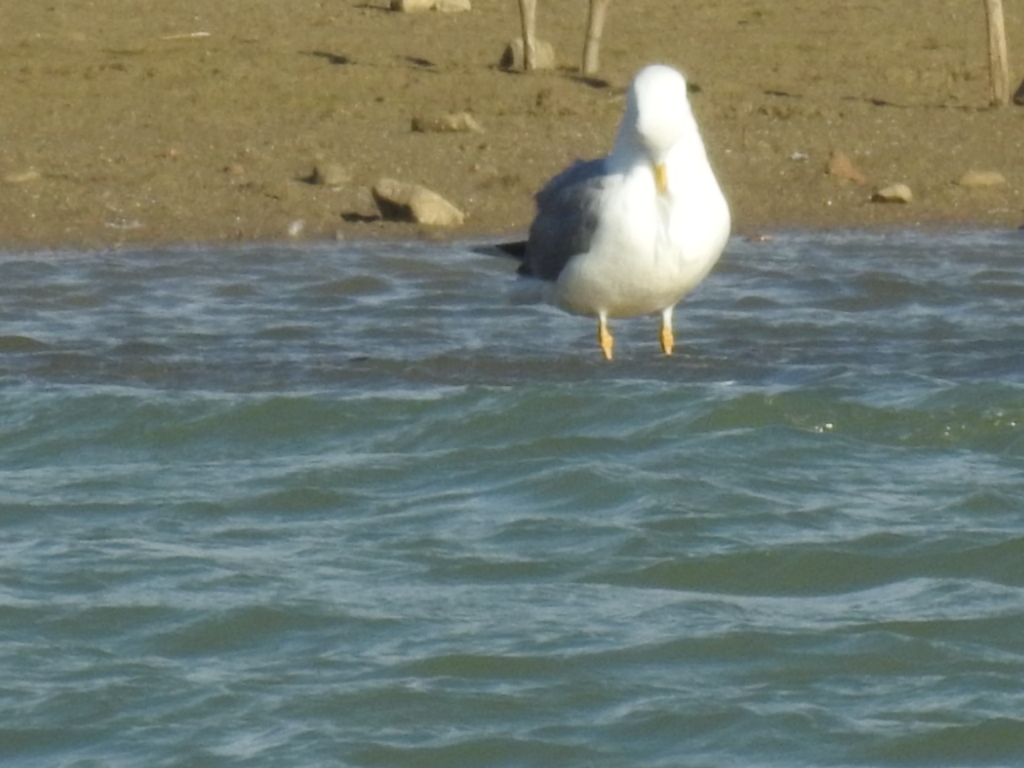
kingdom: Animalia
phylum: Chordata
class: Aves
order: Charadriiformes
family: Laridae
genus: Larus
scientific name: Larus michahellis
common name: Yellow-legged gull
